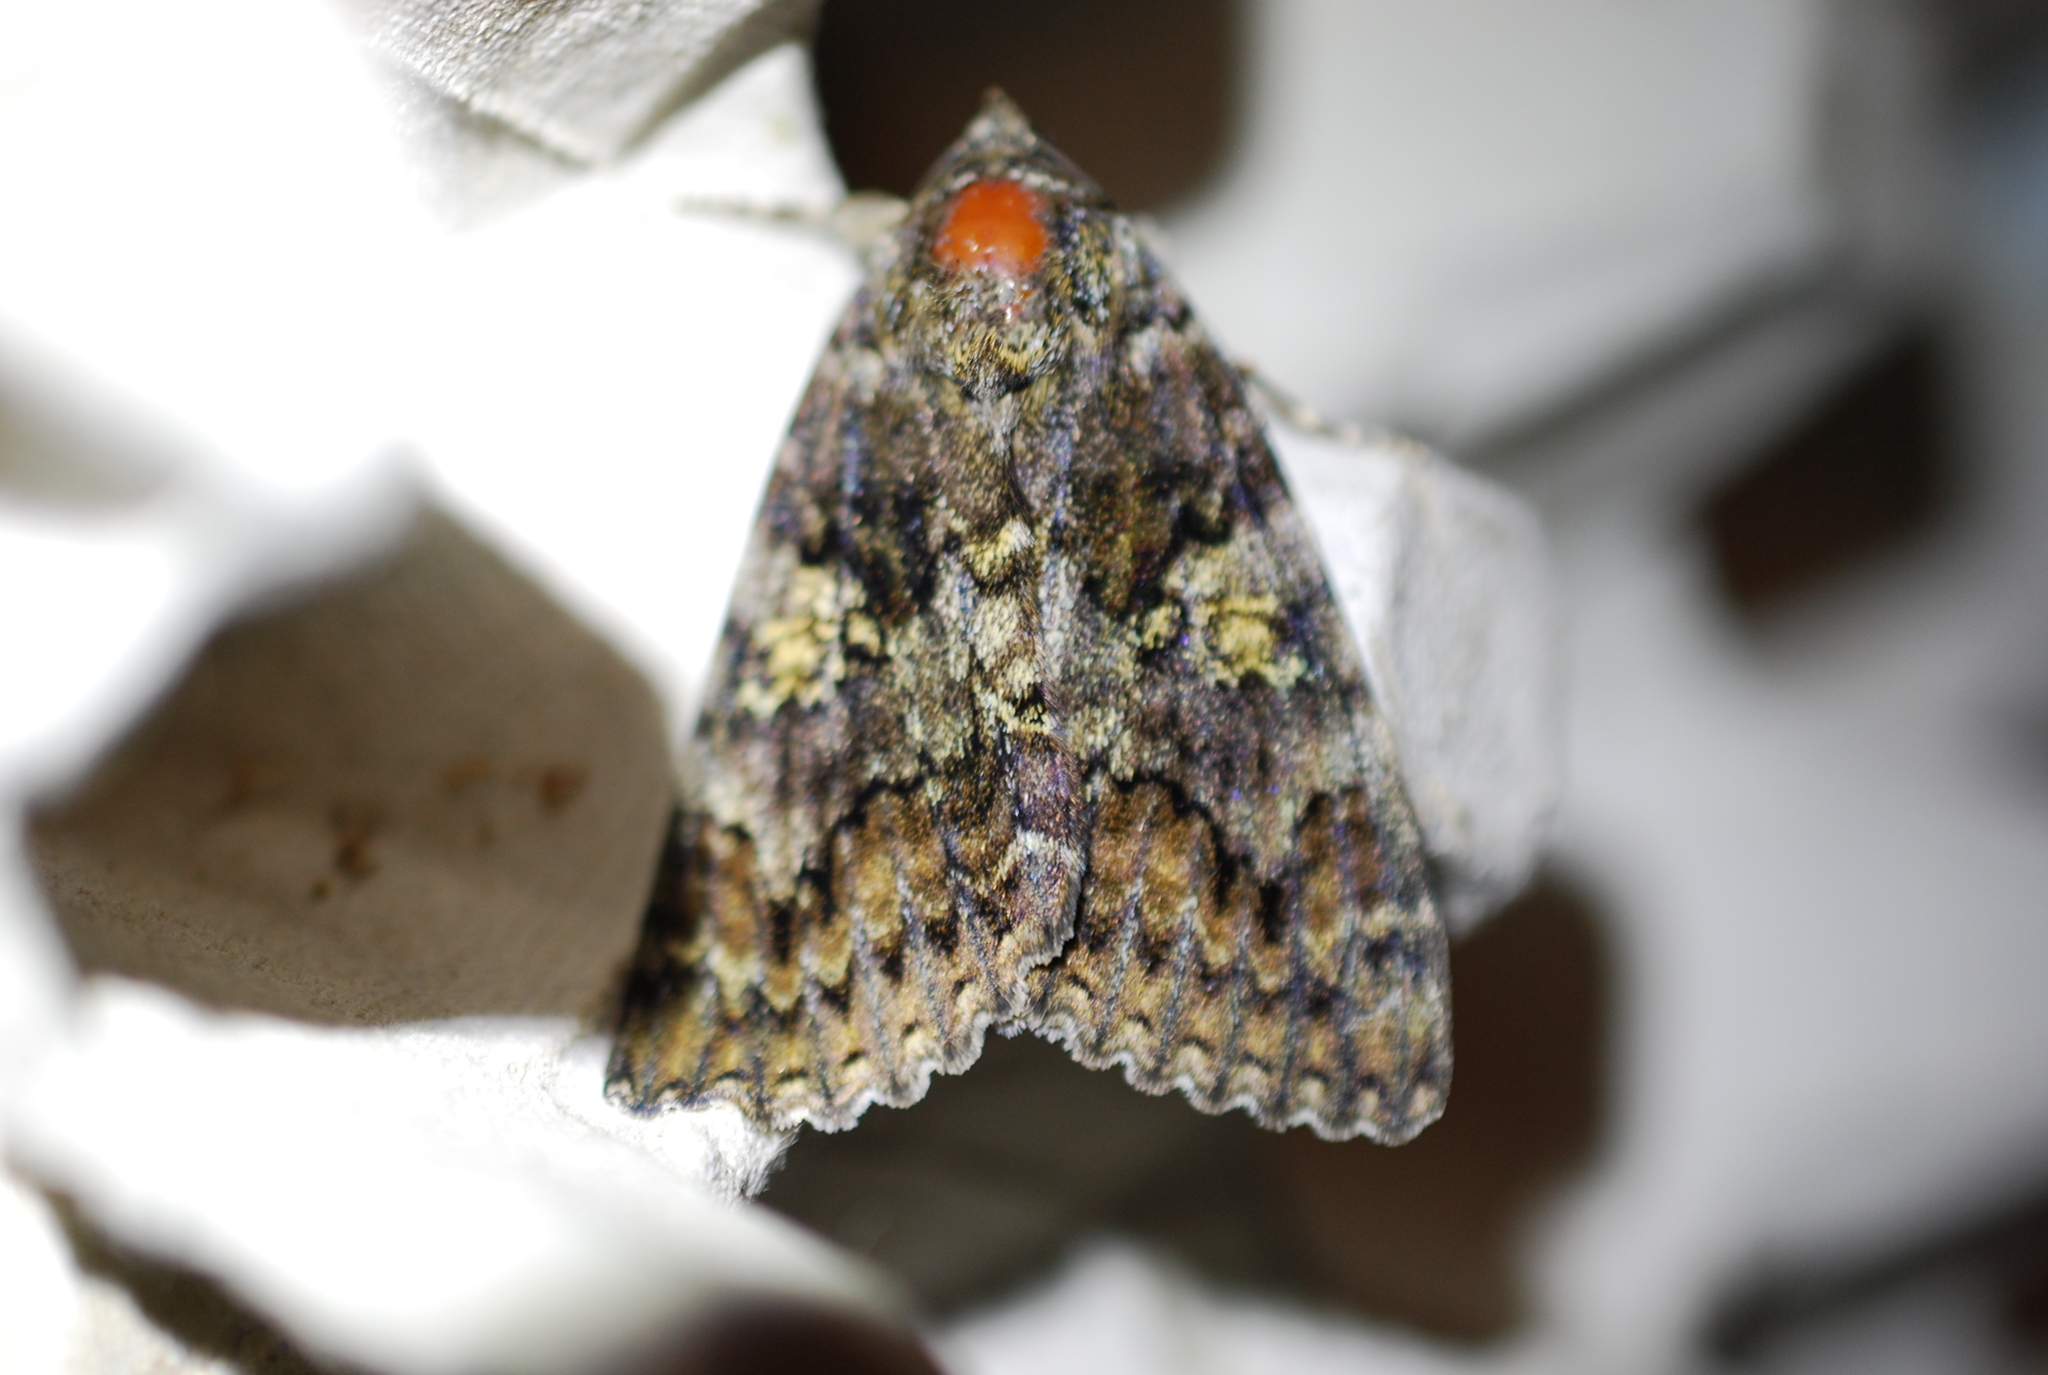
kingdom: Animalia
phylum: Arthropoda
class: Insecta
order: Lepidoptera
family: Erebidae
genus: Catocala
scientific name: Catocala promissa
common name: Light crimson underwing
